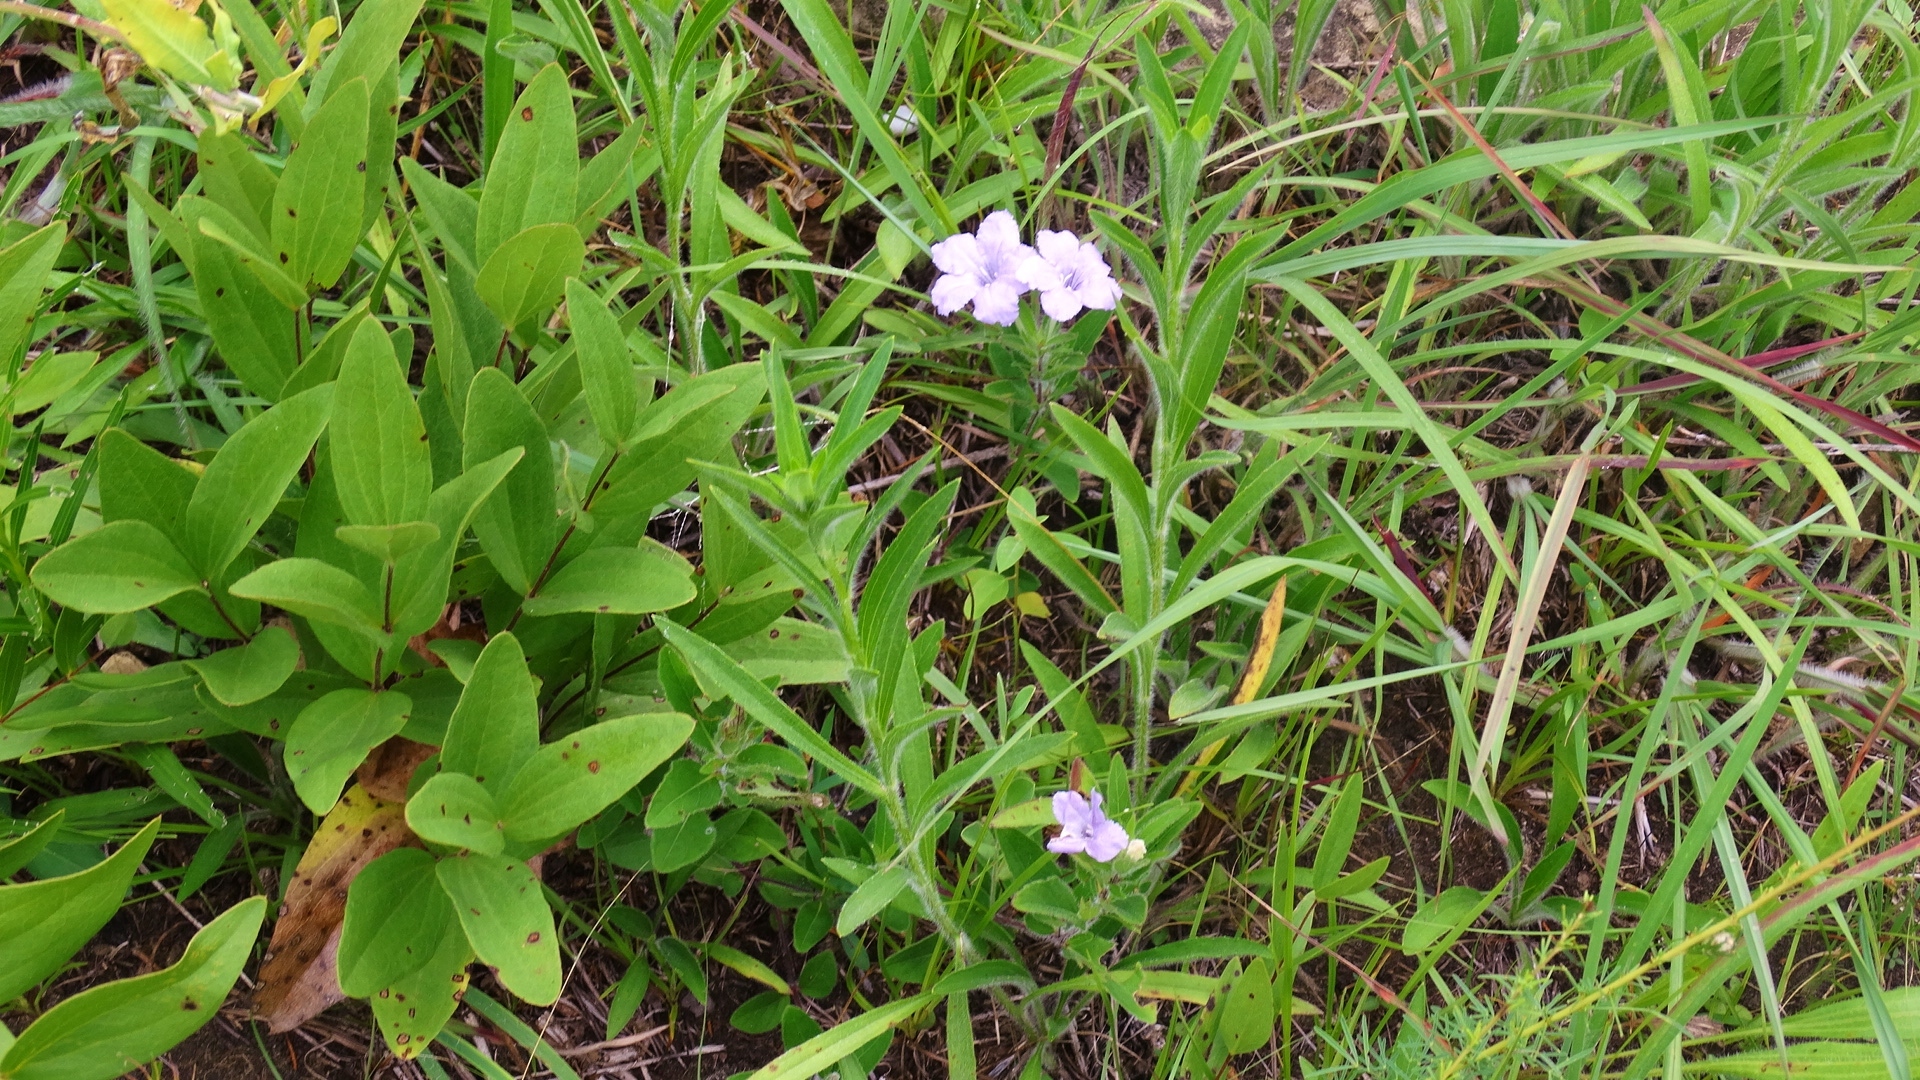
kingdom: Plantae
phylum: Tracheophyta
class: Magnoliopsida
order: Lamiales
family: Acanthaceae
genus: Ruellia
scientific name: Ruellia humilis
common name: Fringe-leaf ruellia
